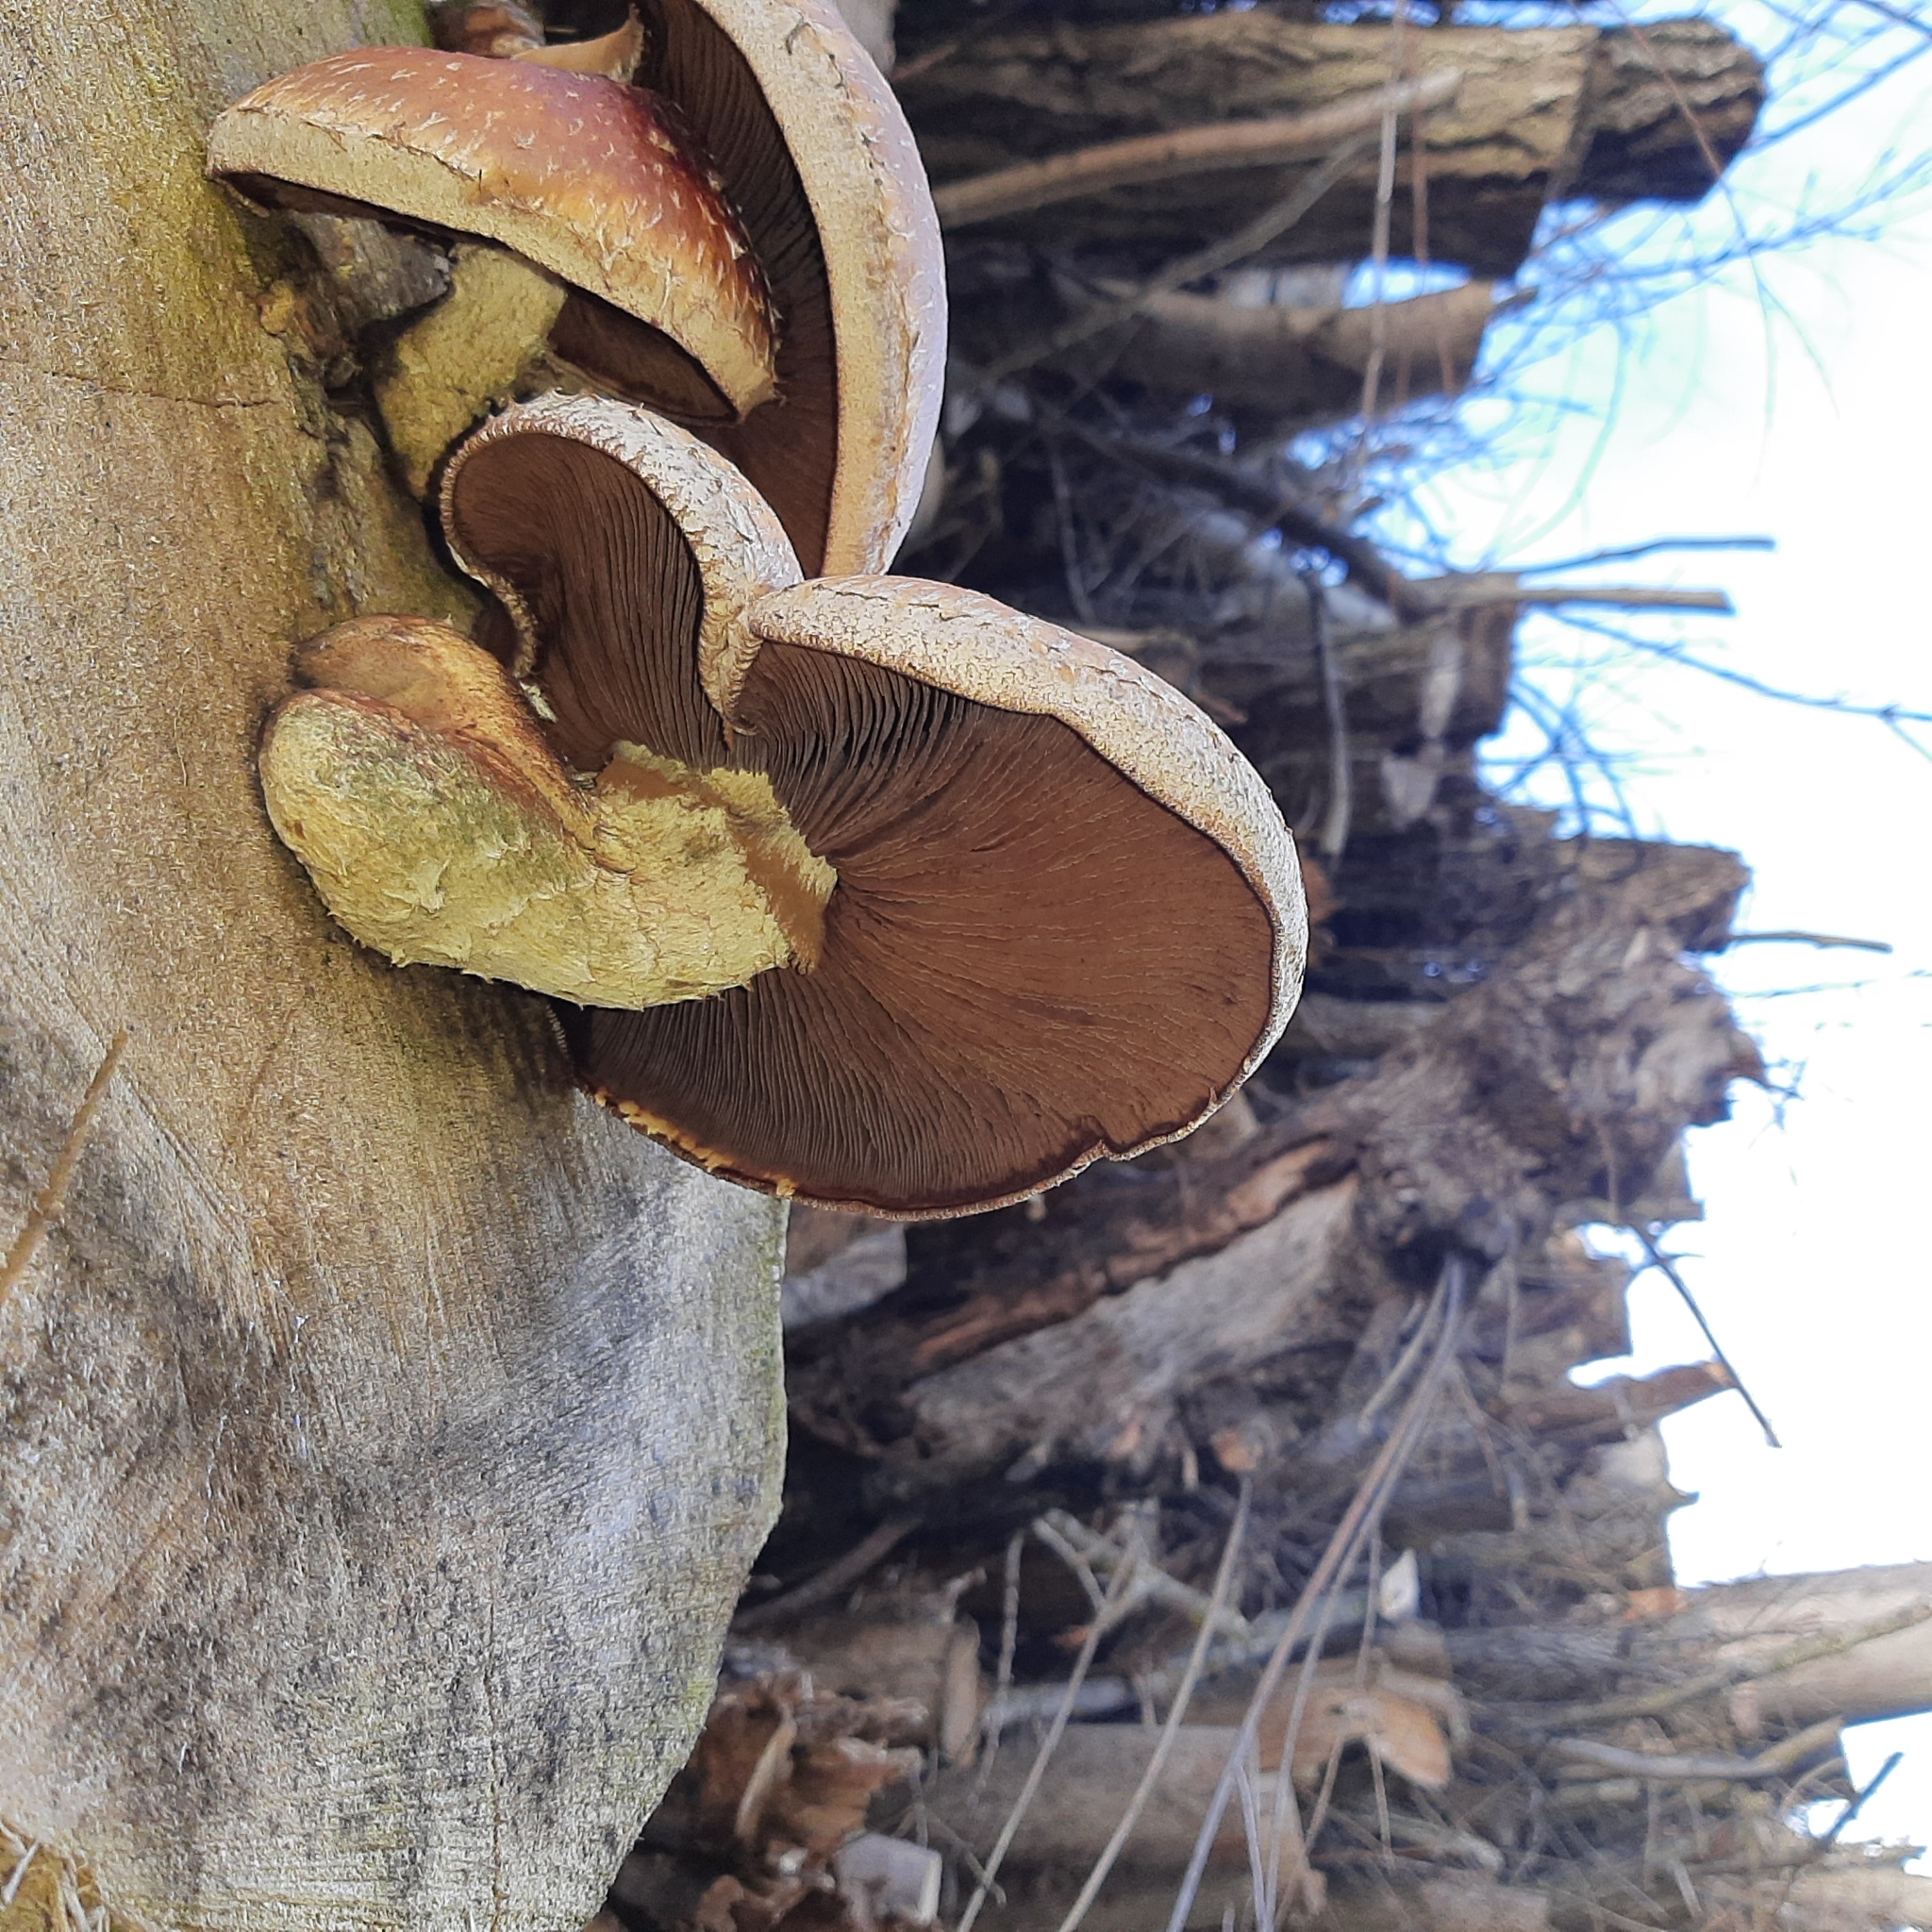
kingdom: Fungi
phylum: Basidiomycota
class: Agaricomycetes
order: Agaricales
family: Strophariaceae
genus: Pholiota
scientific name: Pholiota populnea
